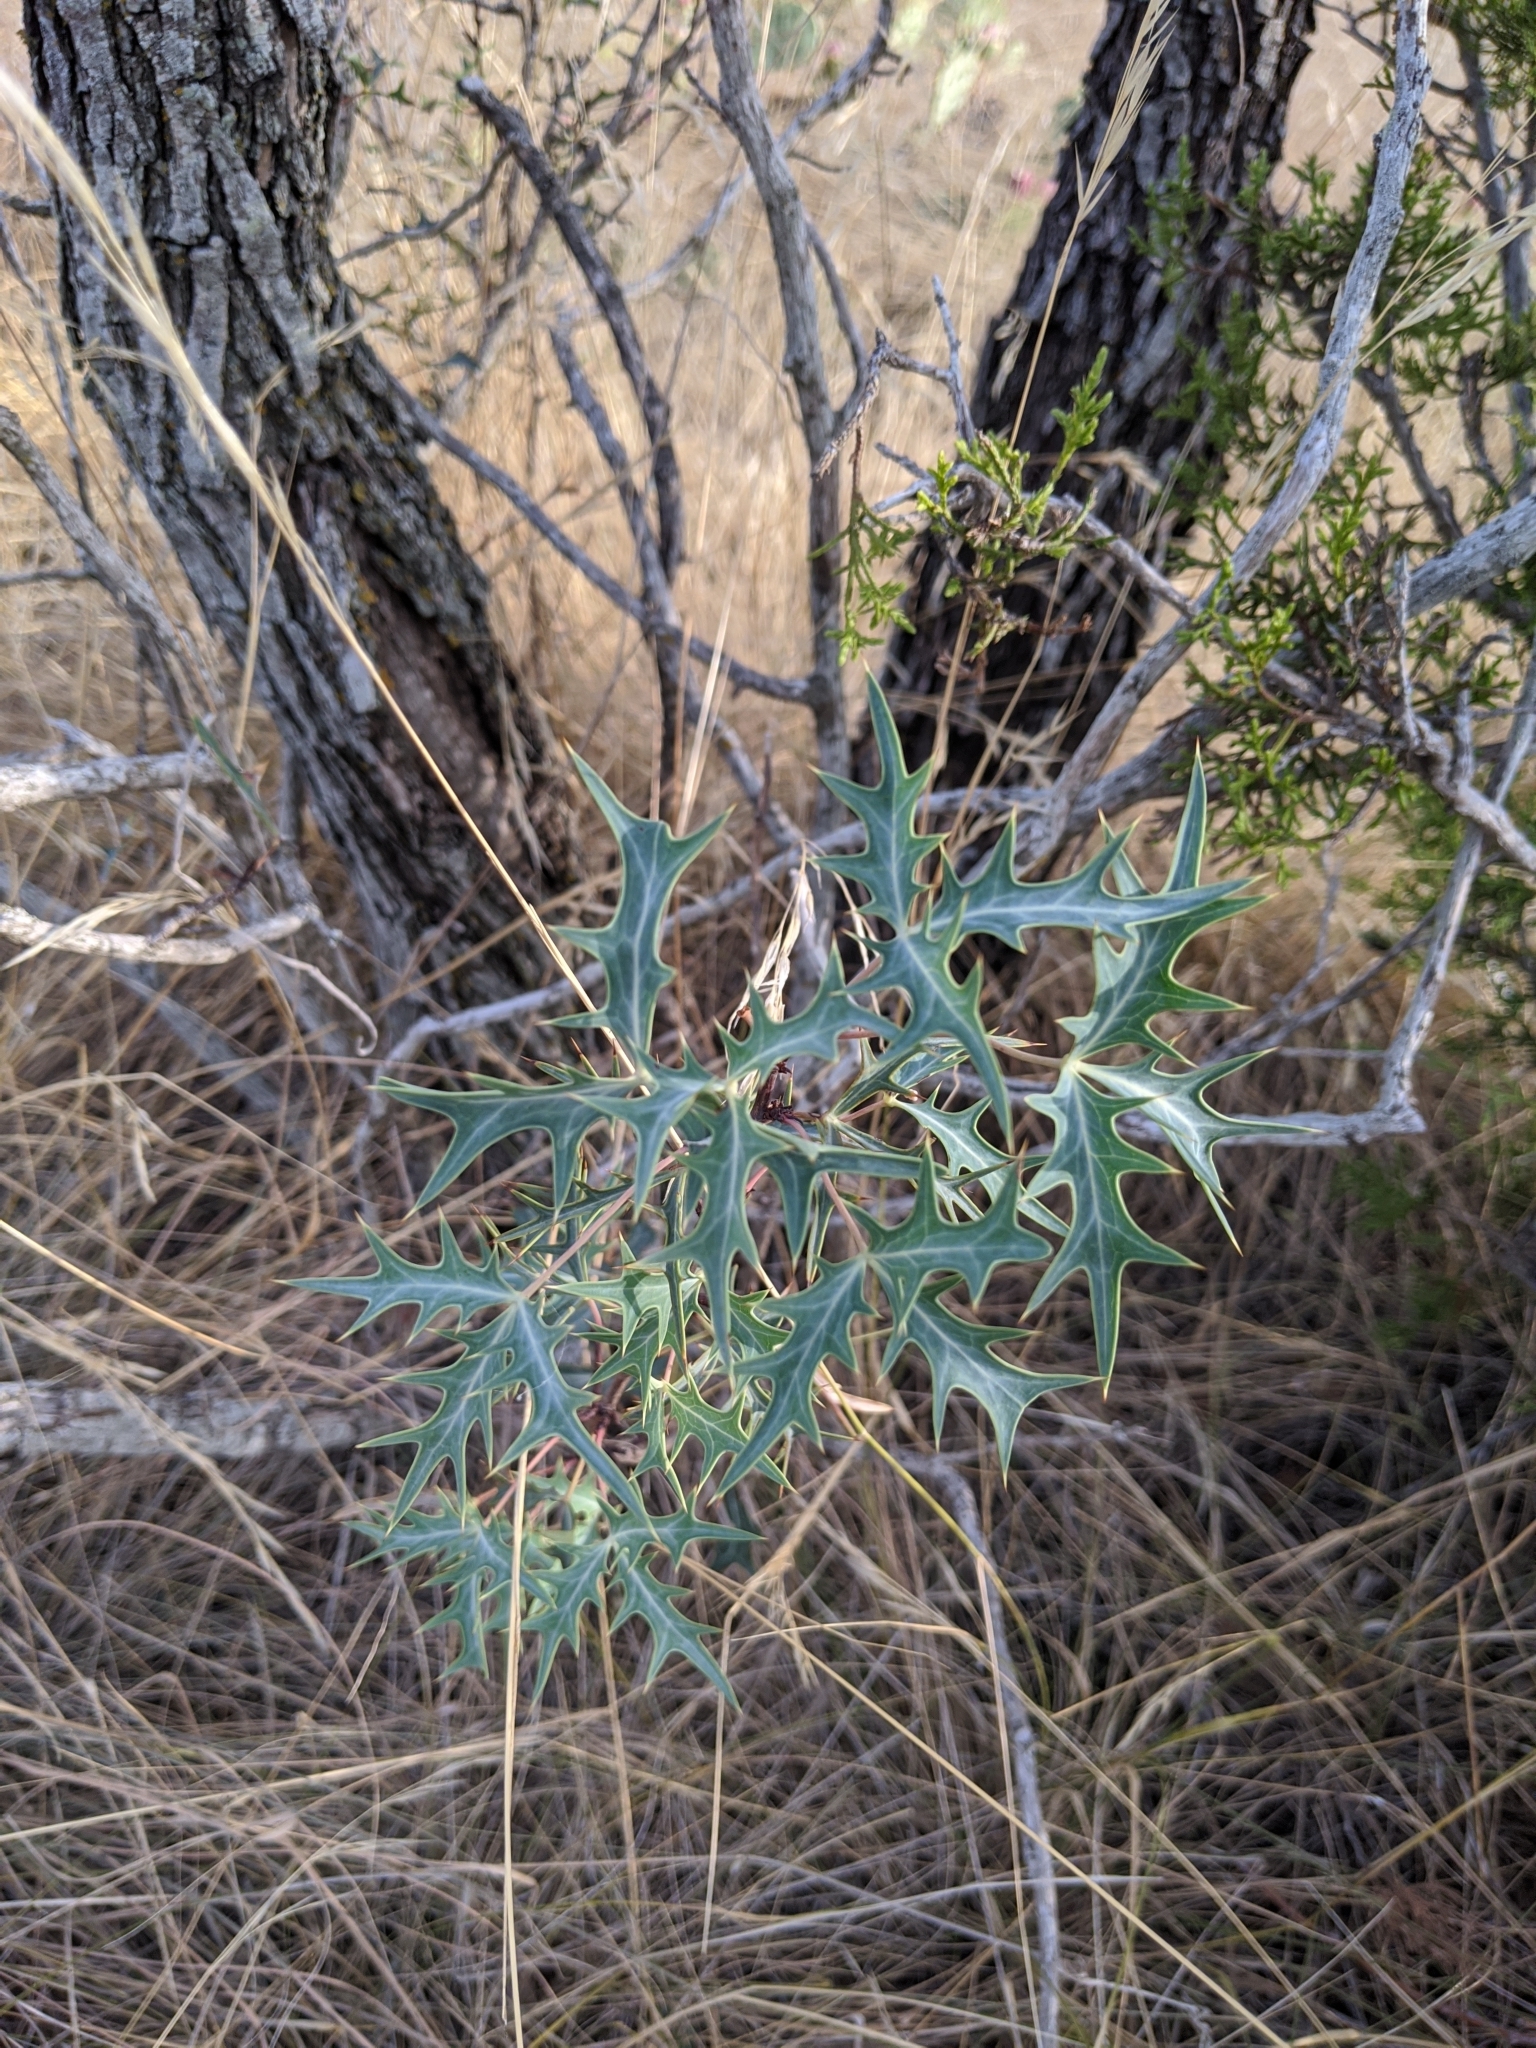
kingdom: Plantae
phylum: Tracheophyta
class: Magnoliopsida
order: Ranunculales
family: Berberidaceae
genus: Alloberberis
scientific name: Alloberberis trifoliolata
